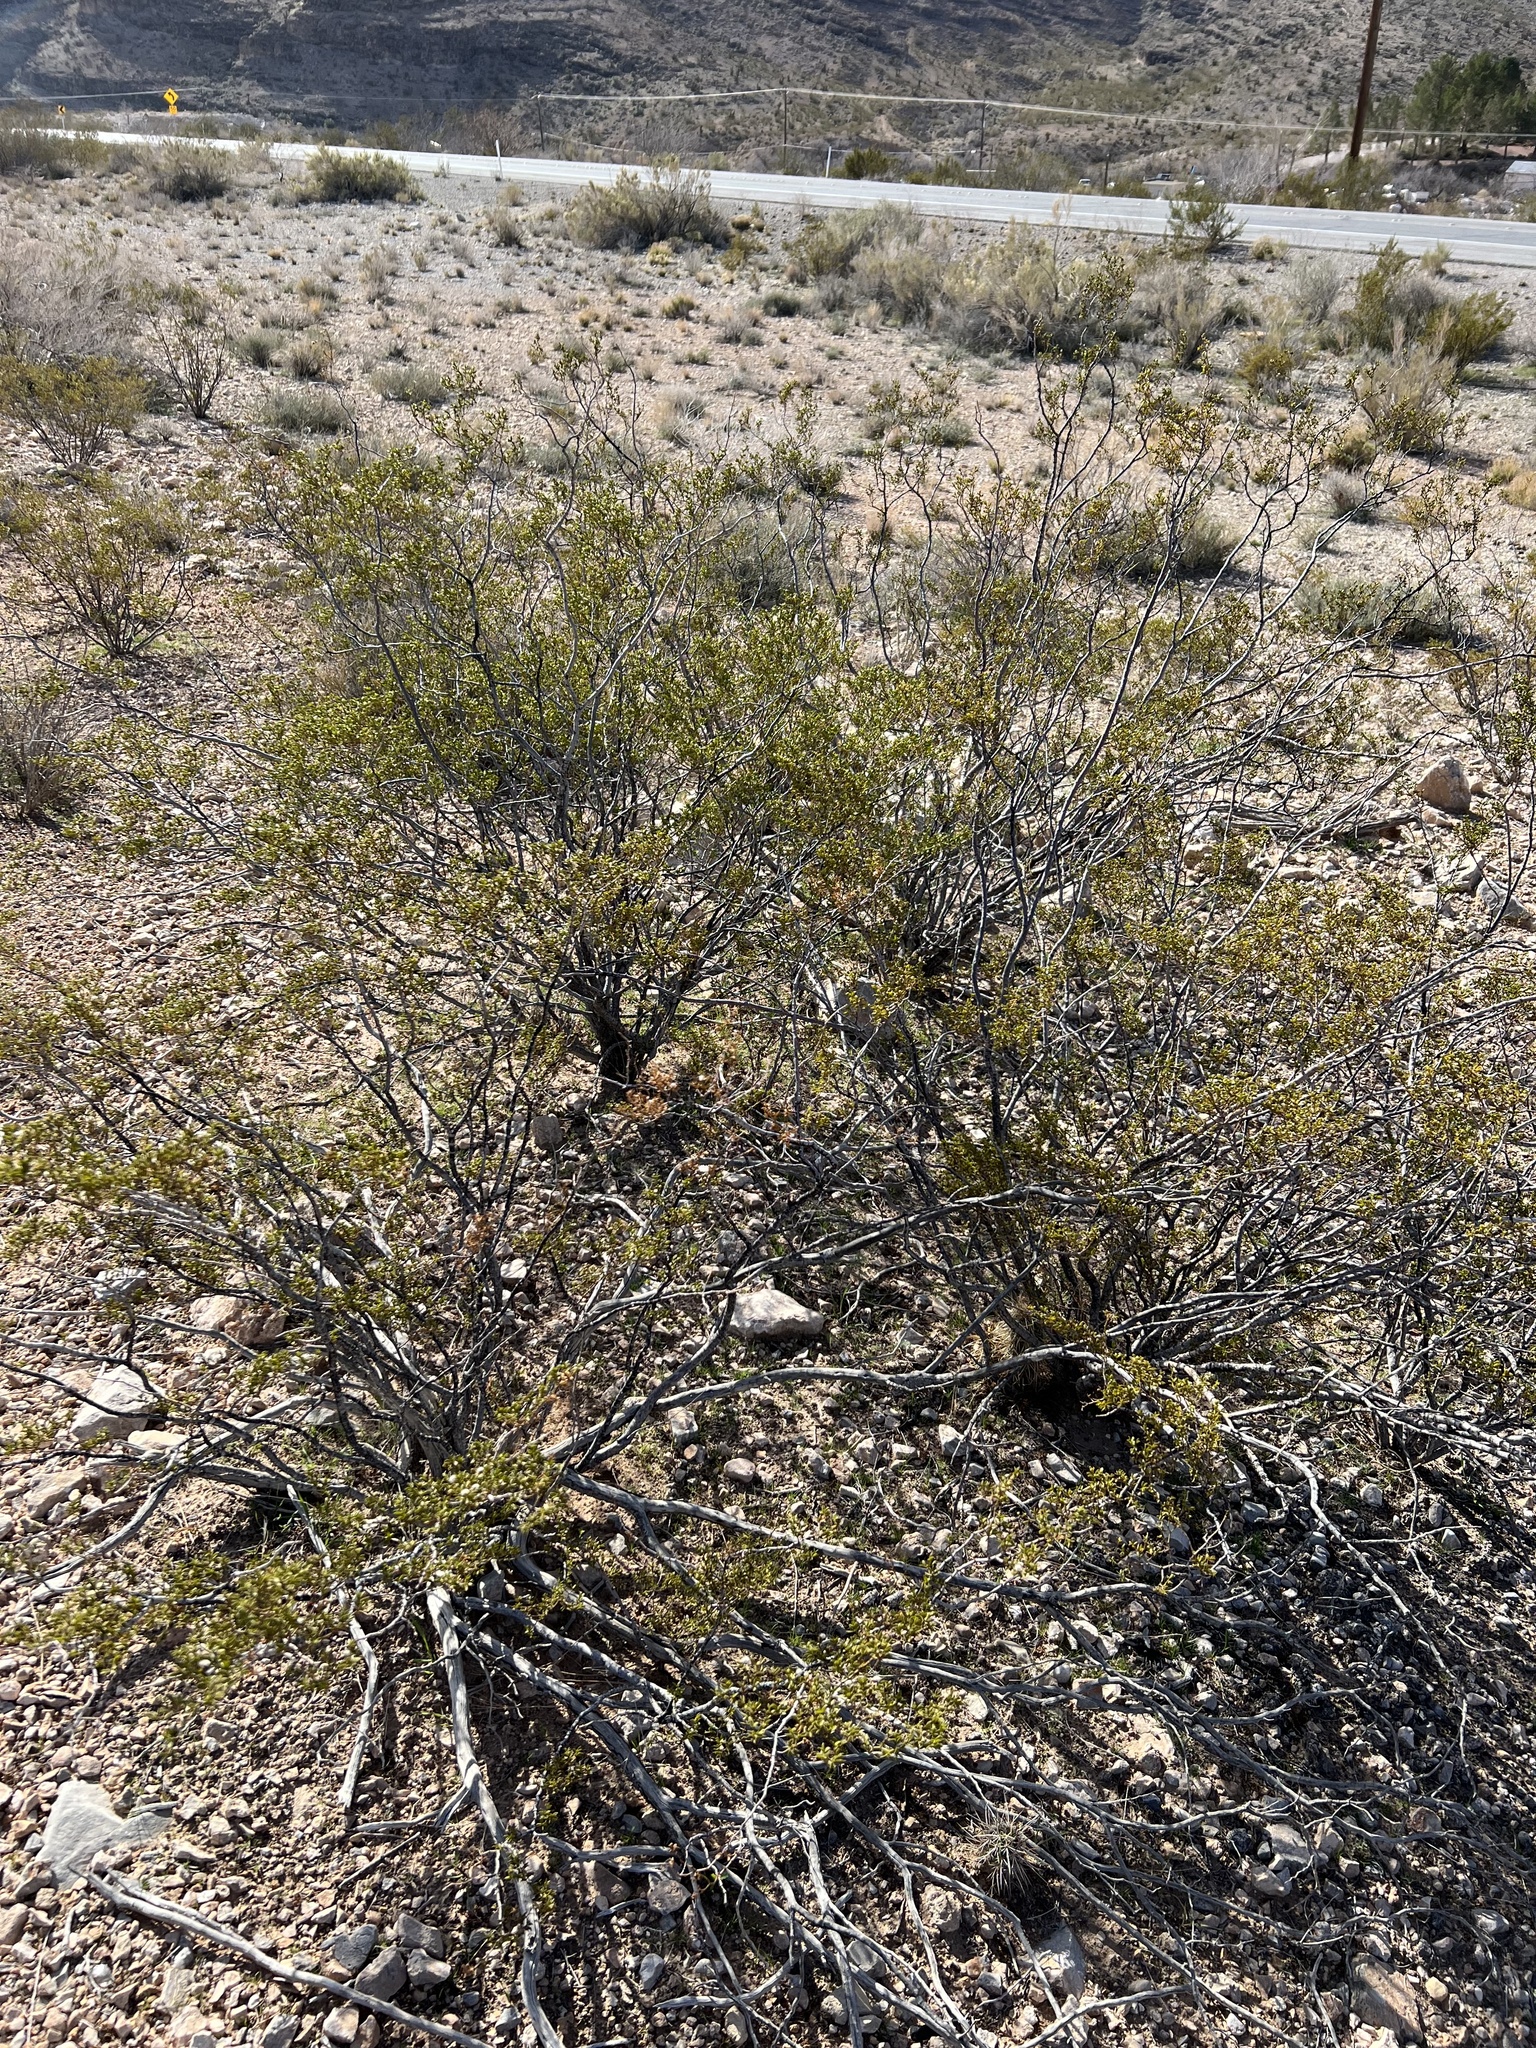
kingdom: Plantae
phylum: Tracheophyta
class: Magnoliopsida
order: Zygophyllales
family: Zygophyllaceae
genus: Larrea
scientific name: Larrea tridentata
